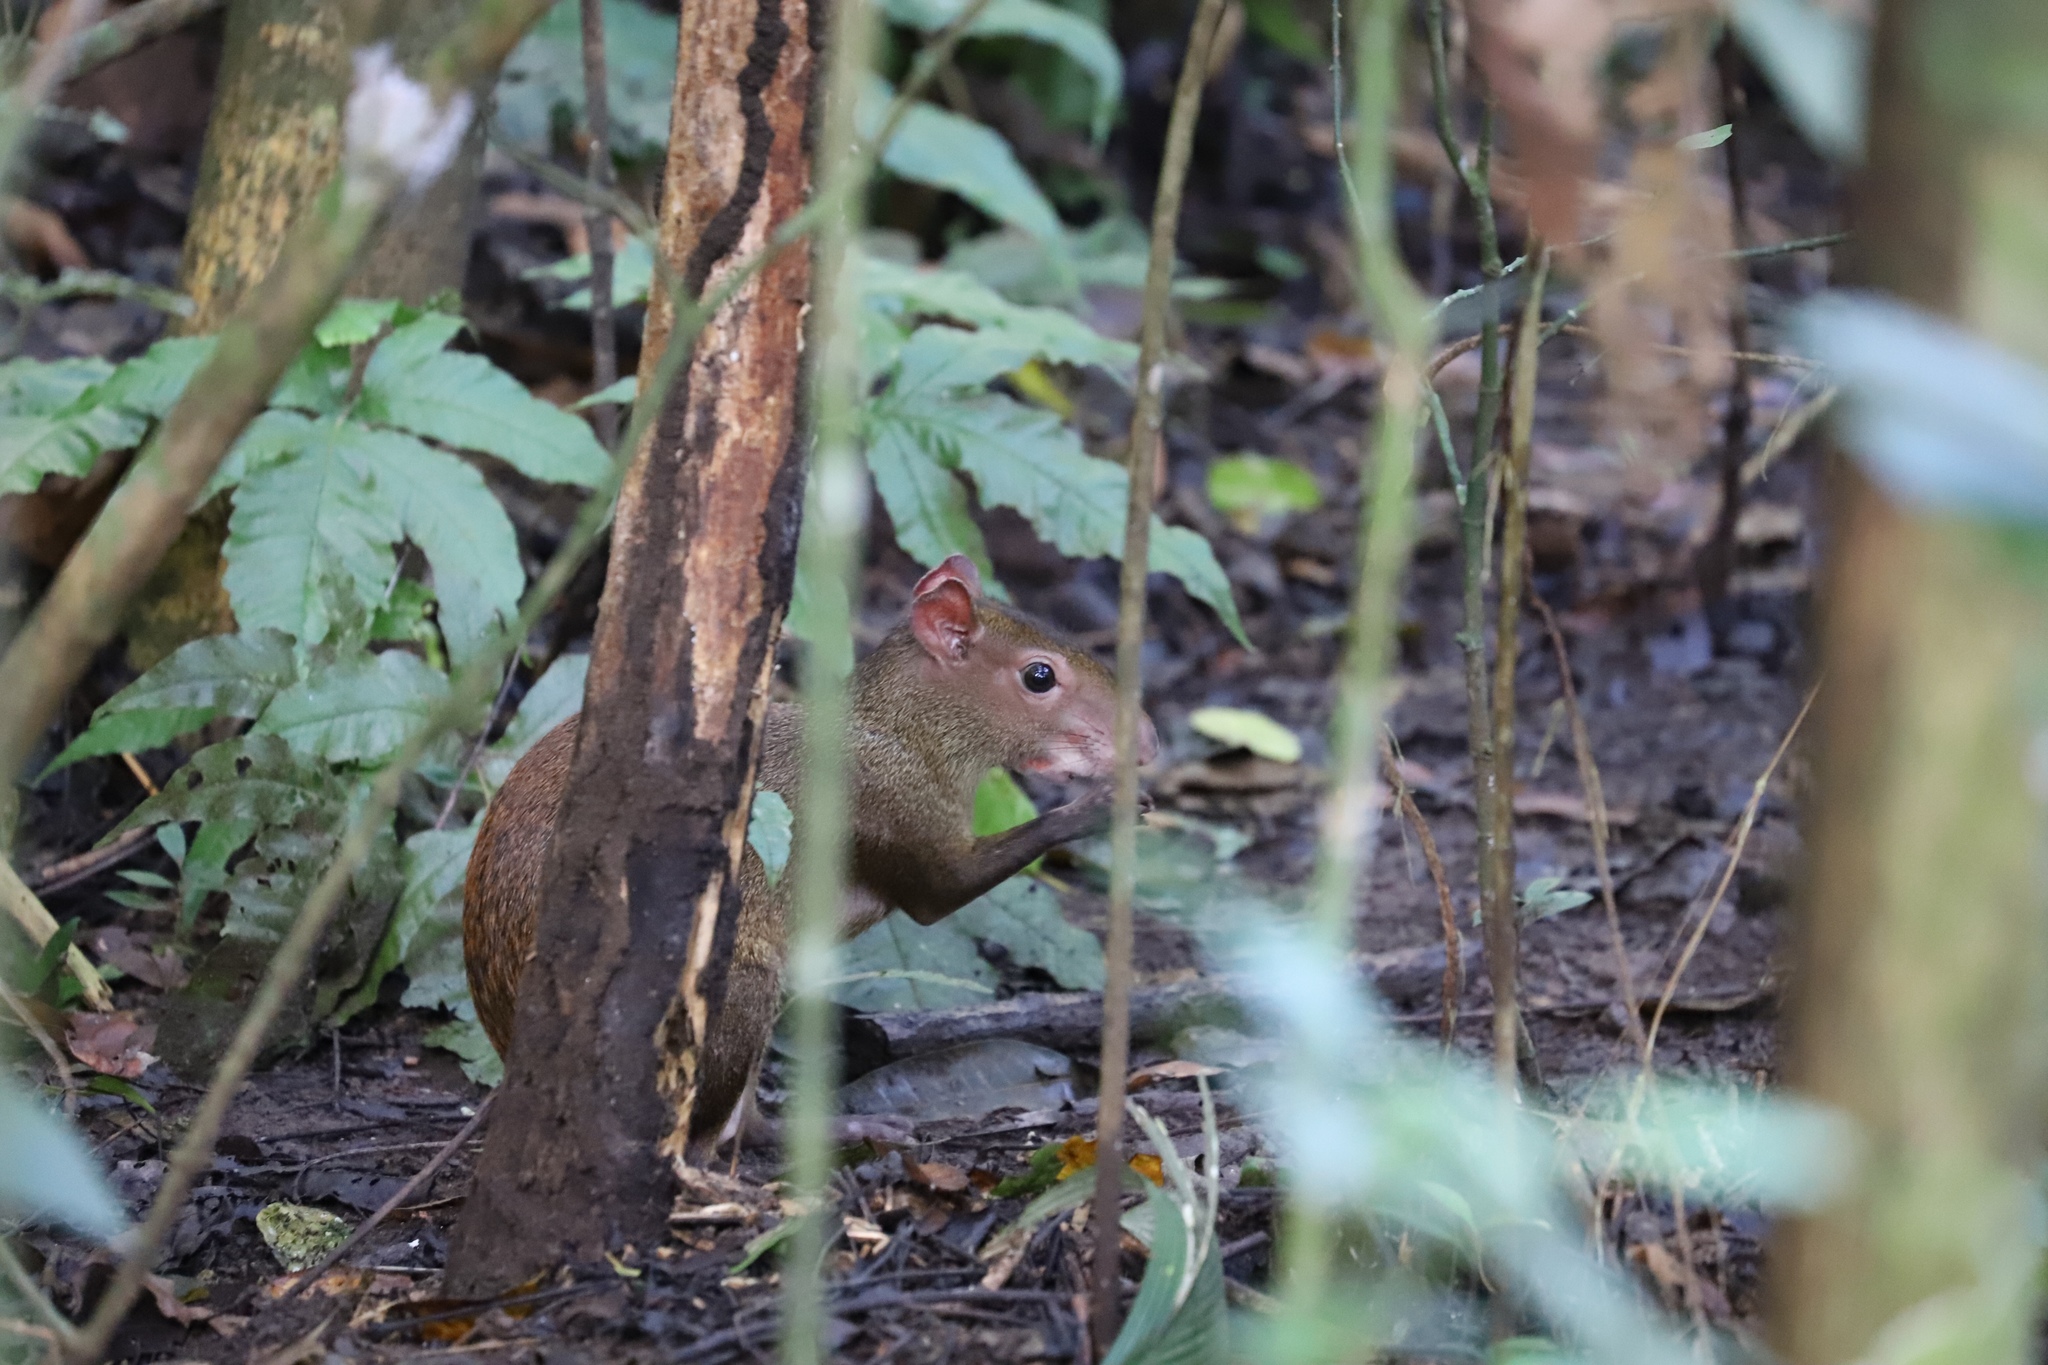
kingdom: Animalia
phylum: Chordata
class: Mammalia
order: Rodentia
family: Dasyproctidae
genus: Dasyprocta
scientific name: Dasyprocta punctata
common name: Central american agouti
